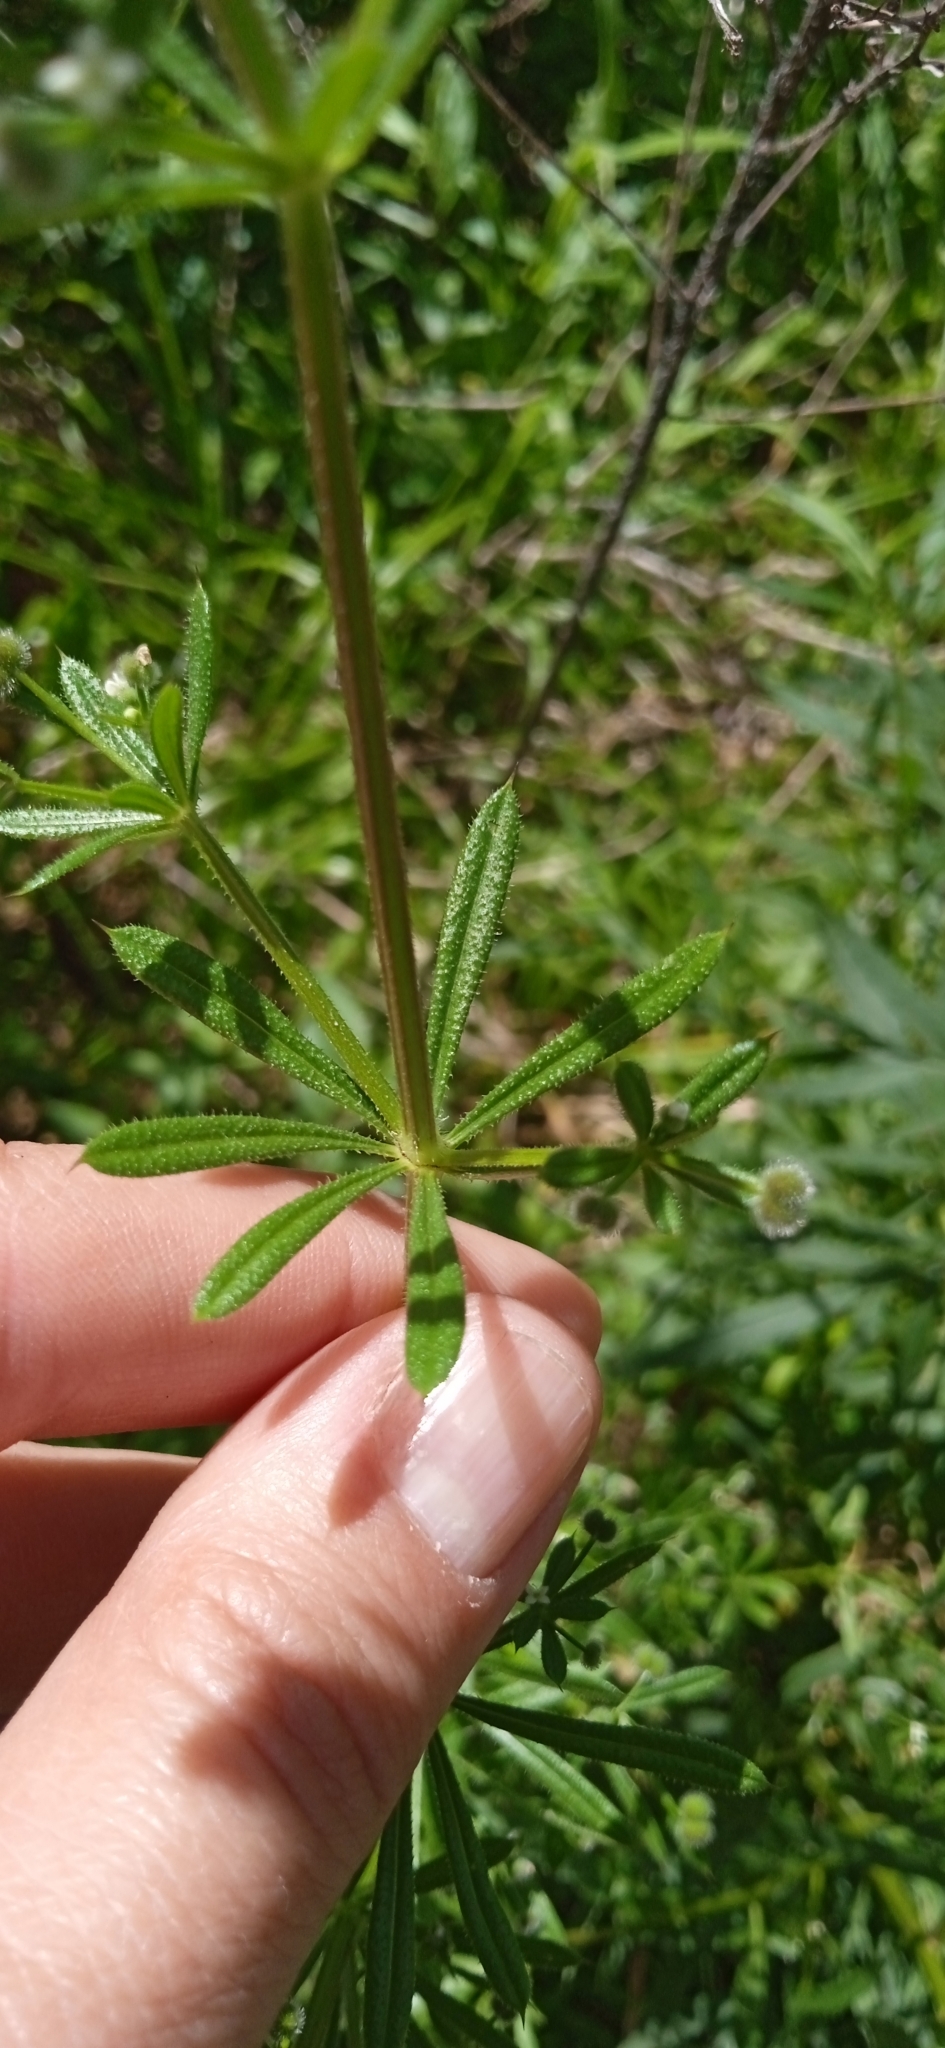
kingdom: Plantae
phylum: Tracheophyta
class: Magnoliopsida
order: Gentianales
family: Rubiaceae
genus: Galium
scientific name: Galium aparine
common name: Cleavers
